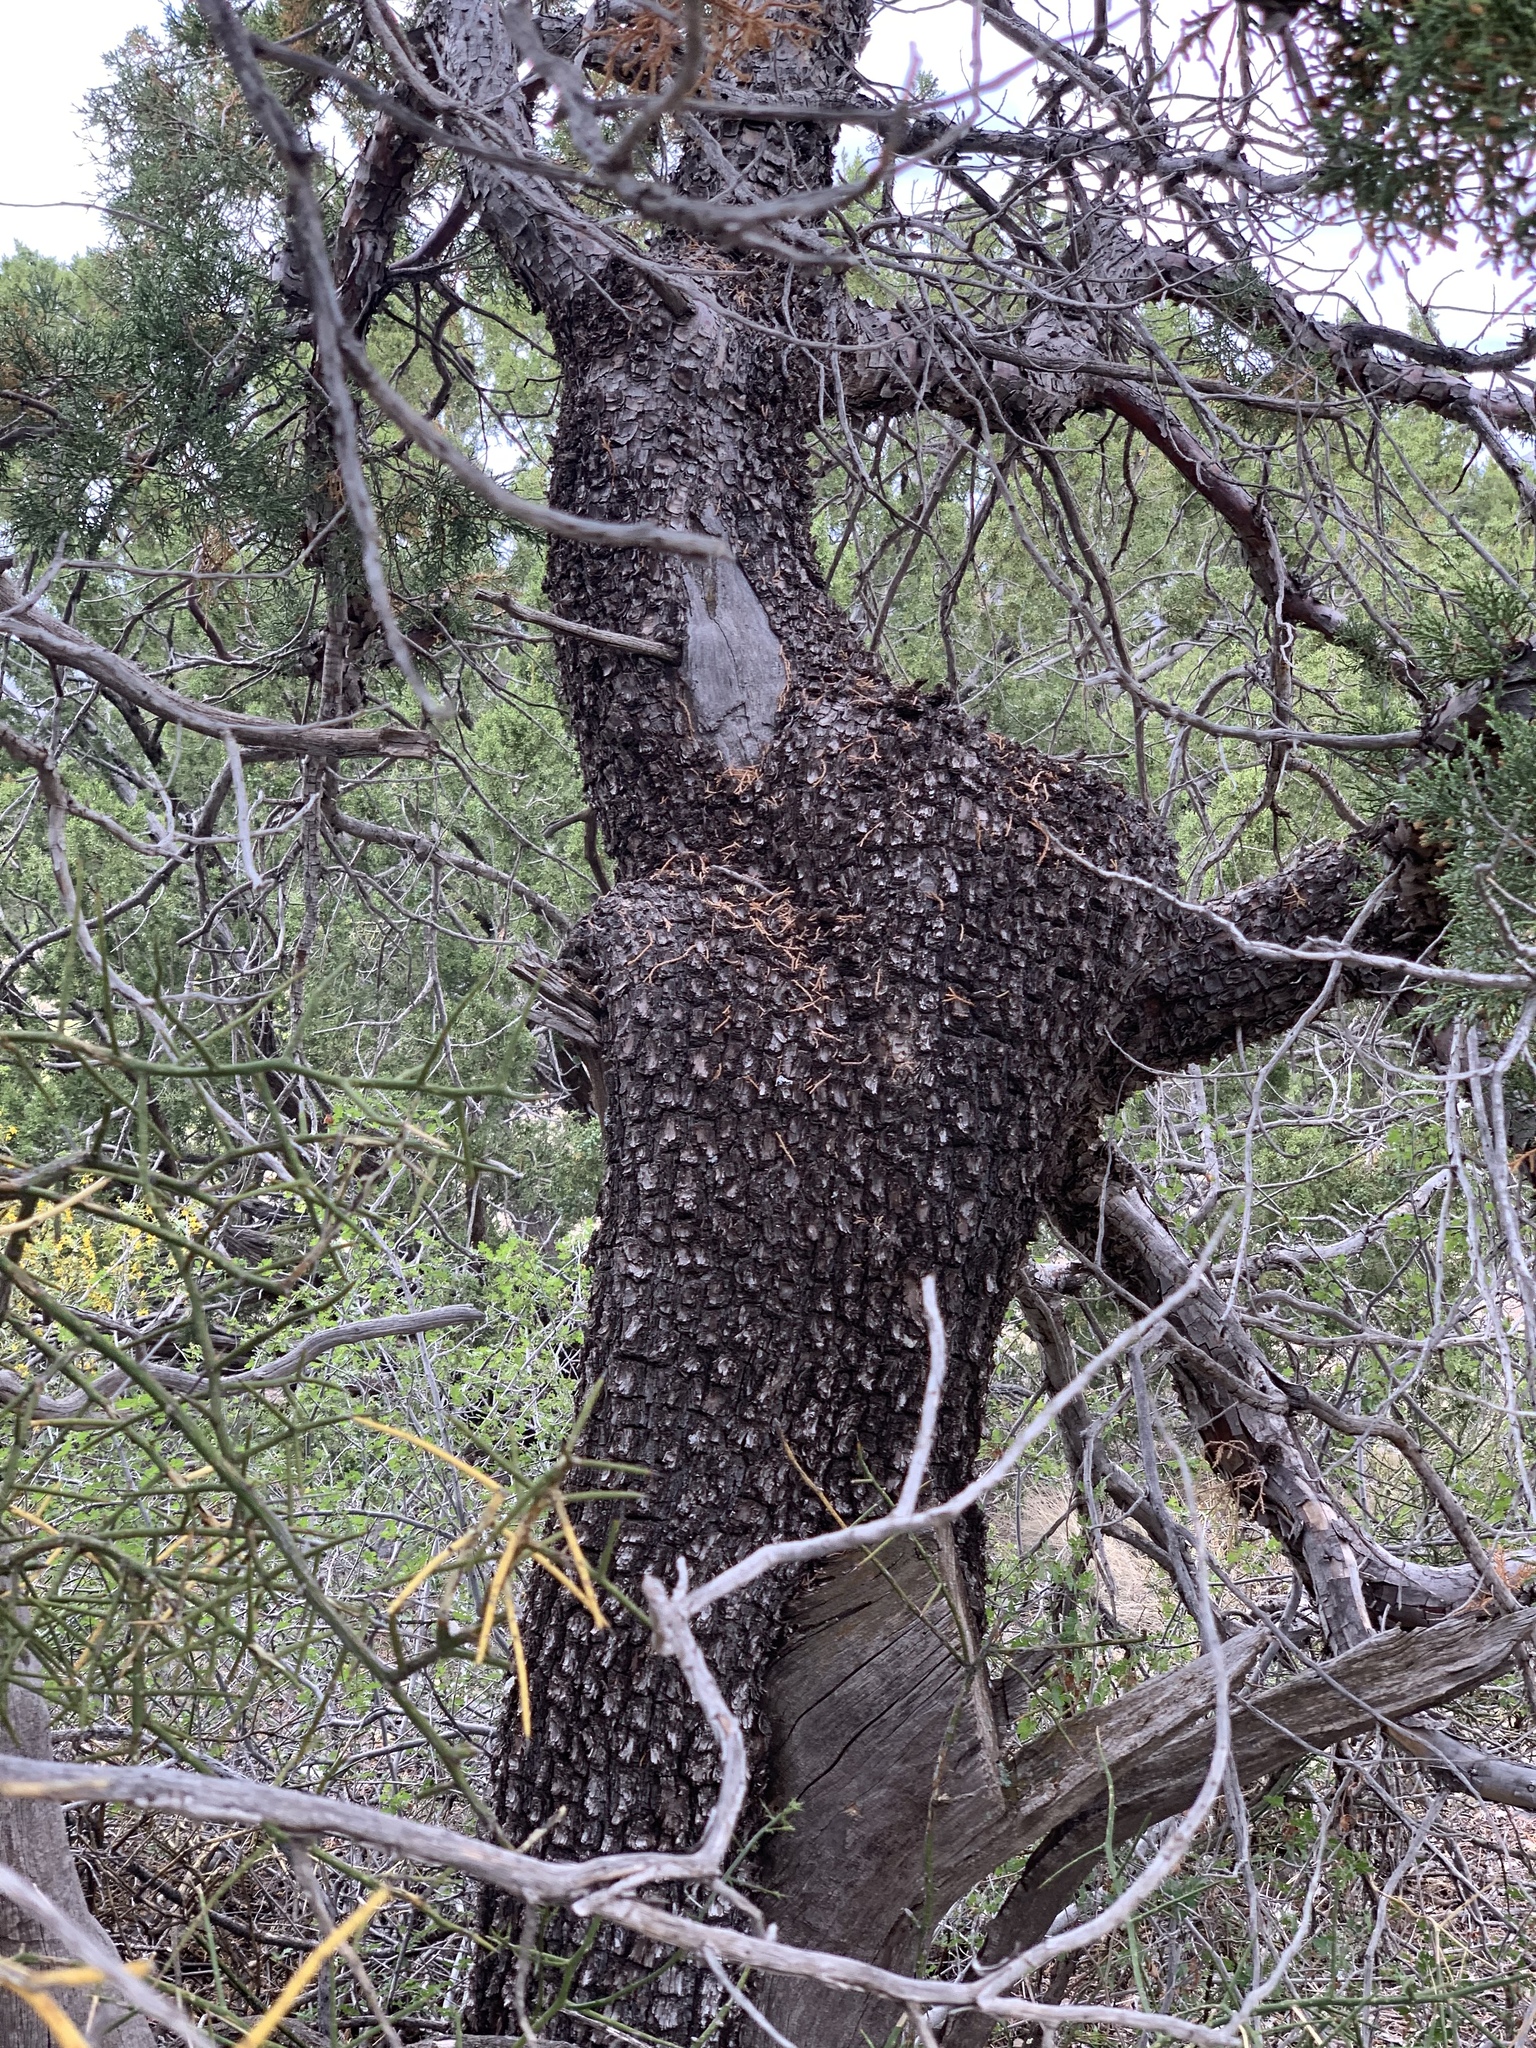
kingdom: Plantae
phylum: Tracheophyta
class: Pinopsida
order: Pinales
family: Cupressaceae
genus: Juniperus
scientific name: Juniperus deppeana
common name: Alligator juniper
